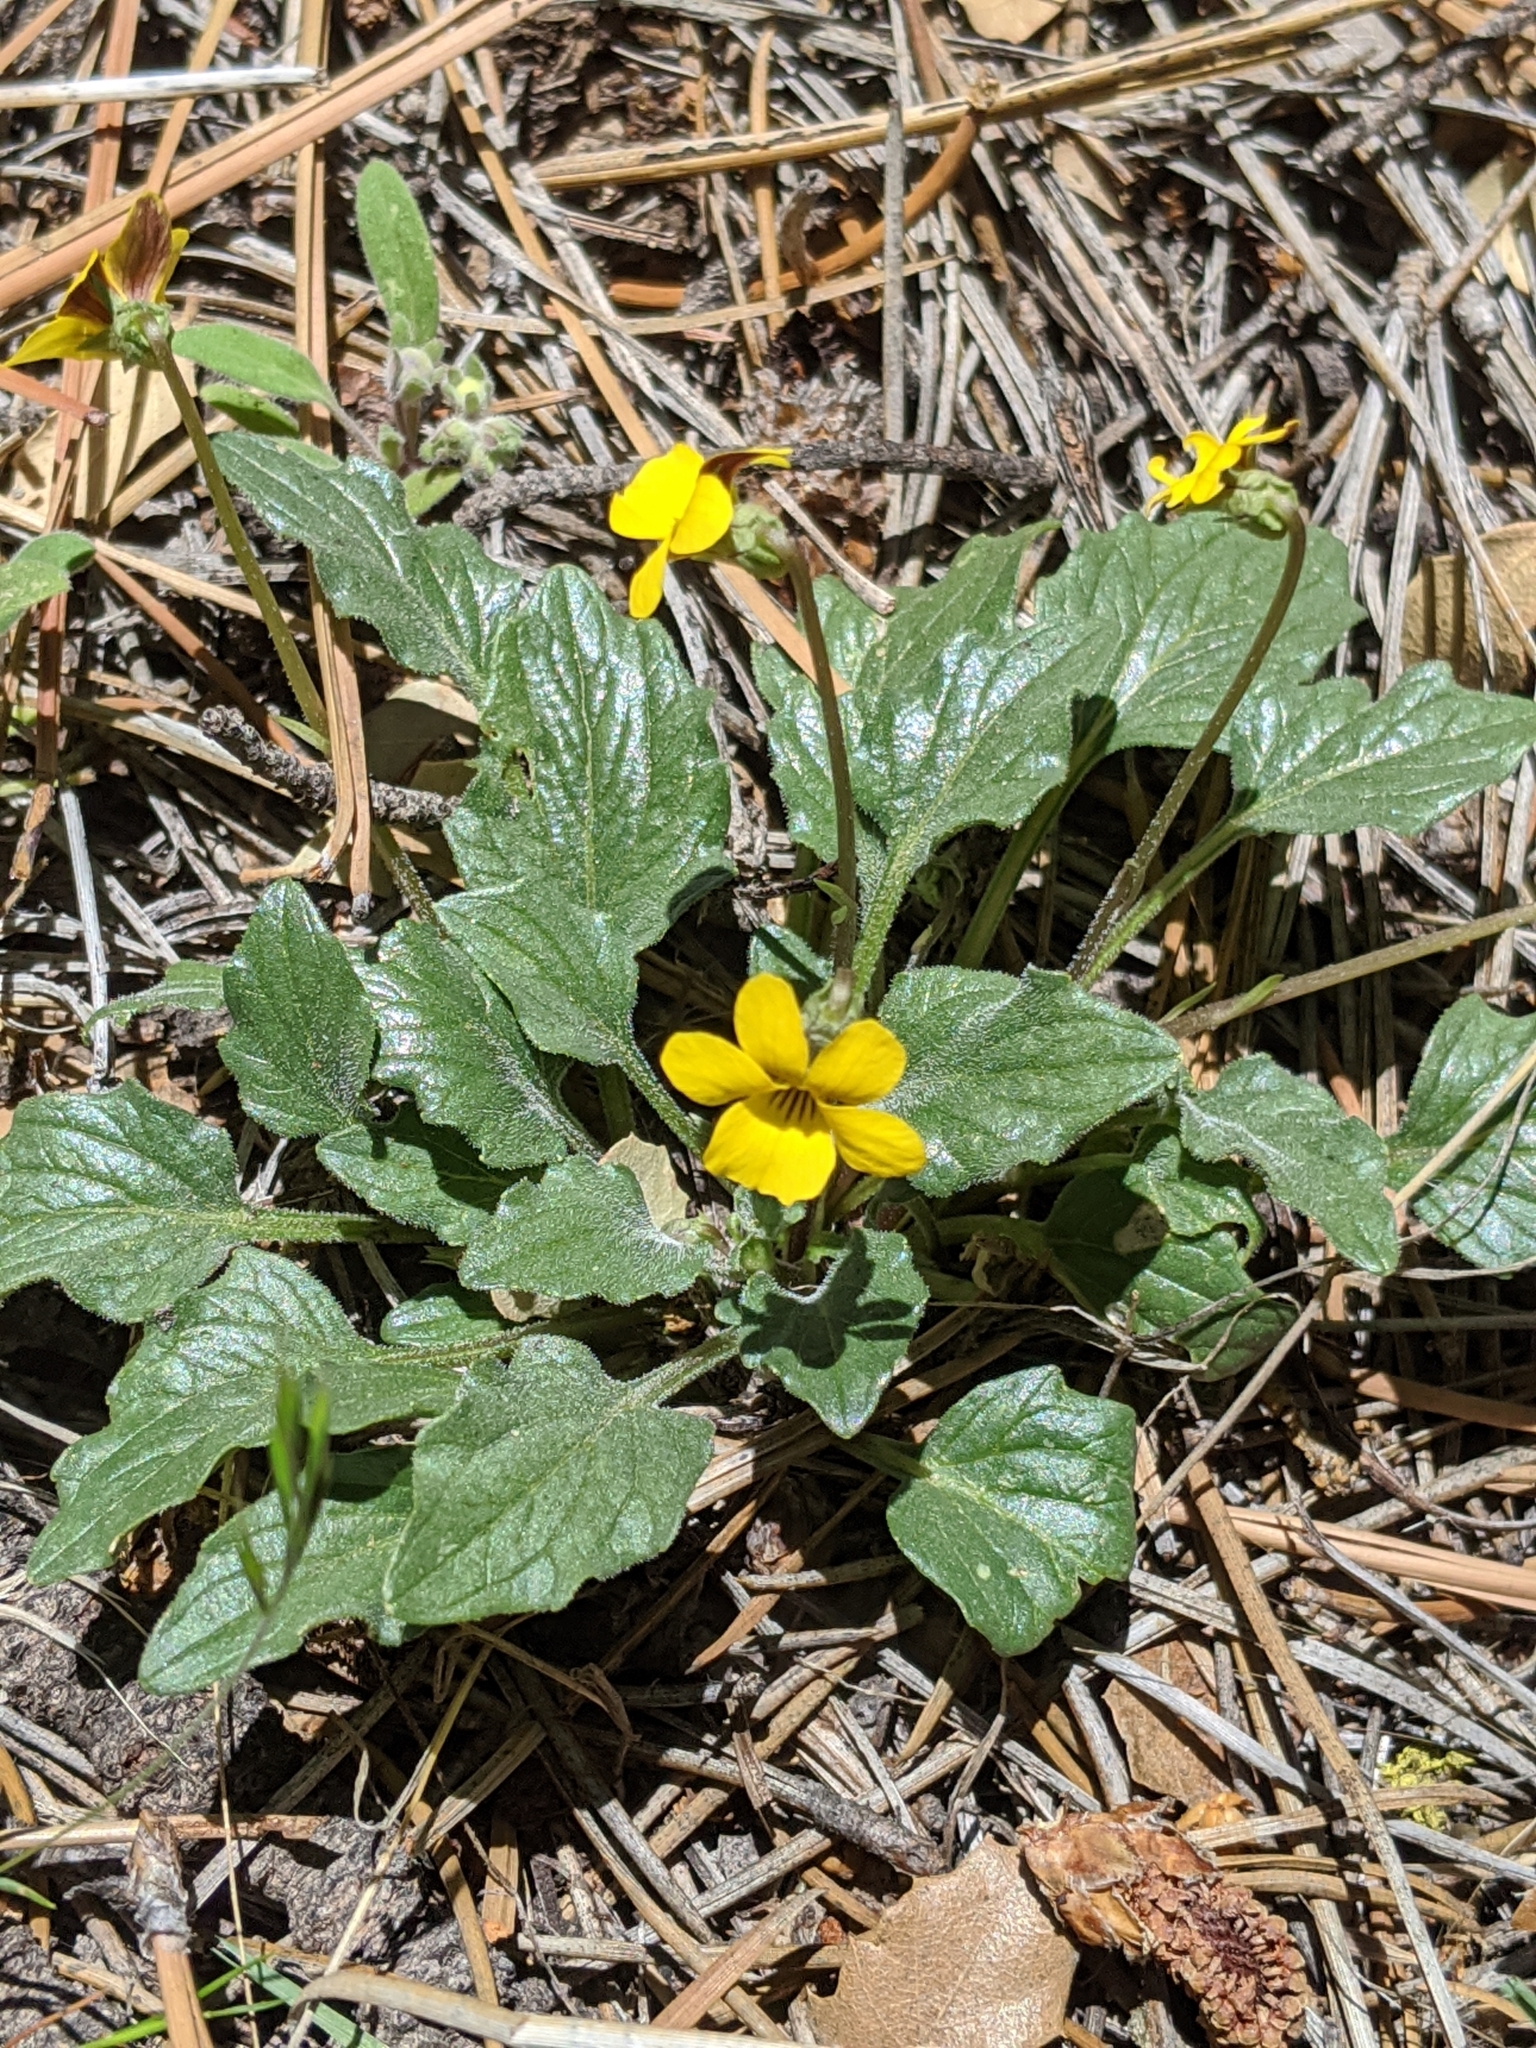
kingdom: Plantae
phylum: Tracheophyta
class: Magnoliopsida
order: Malpighiales
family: Violaceae
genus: Viola
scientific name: Viola purpurea
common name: Pine violet
